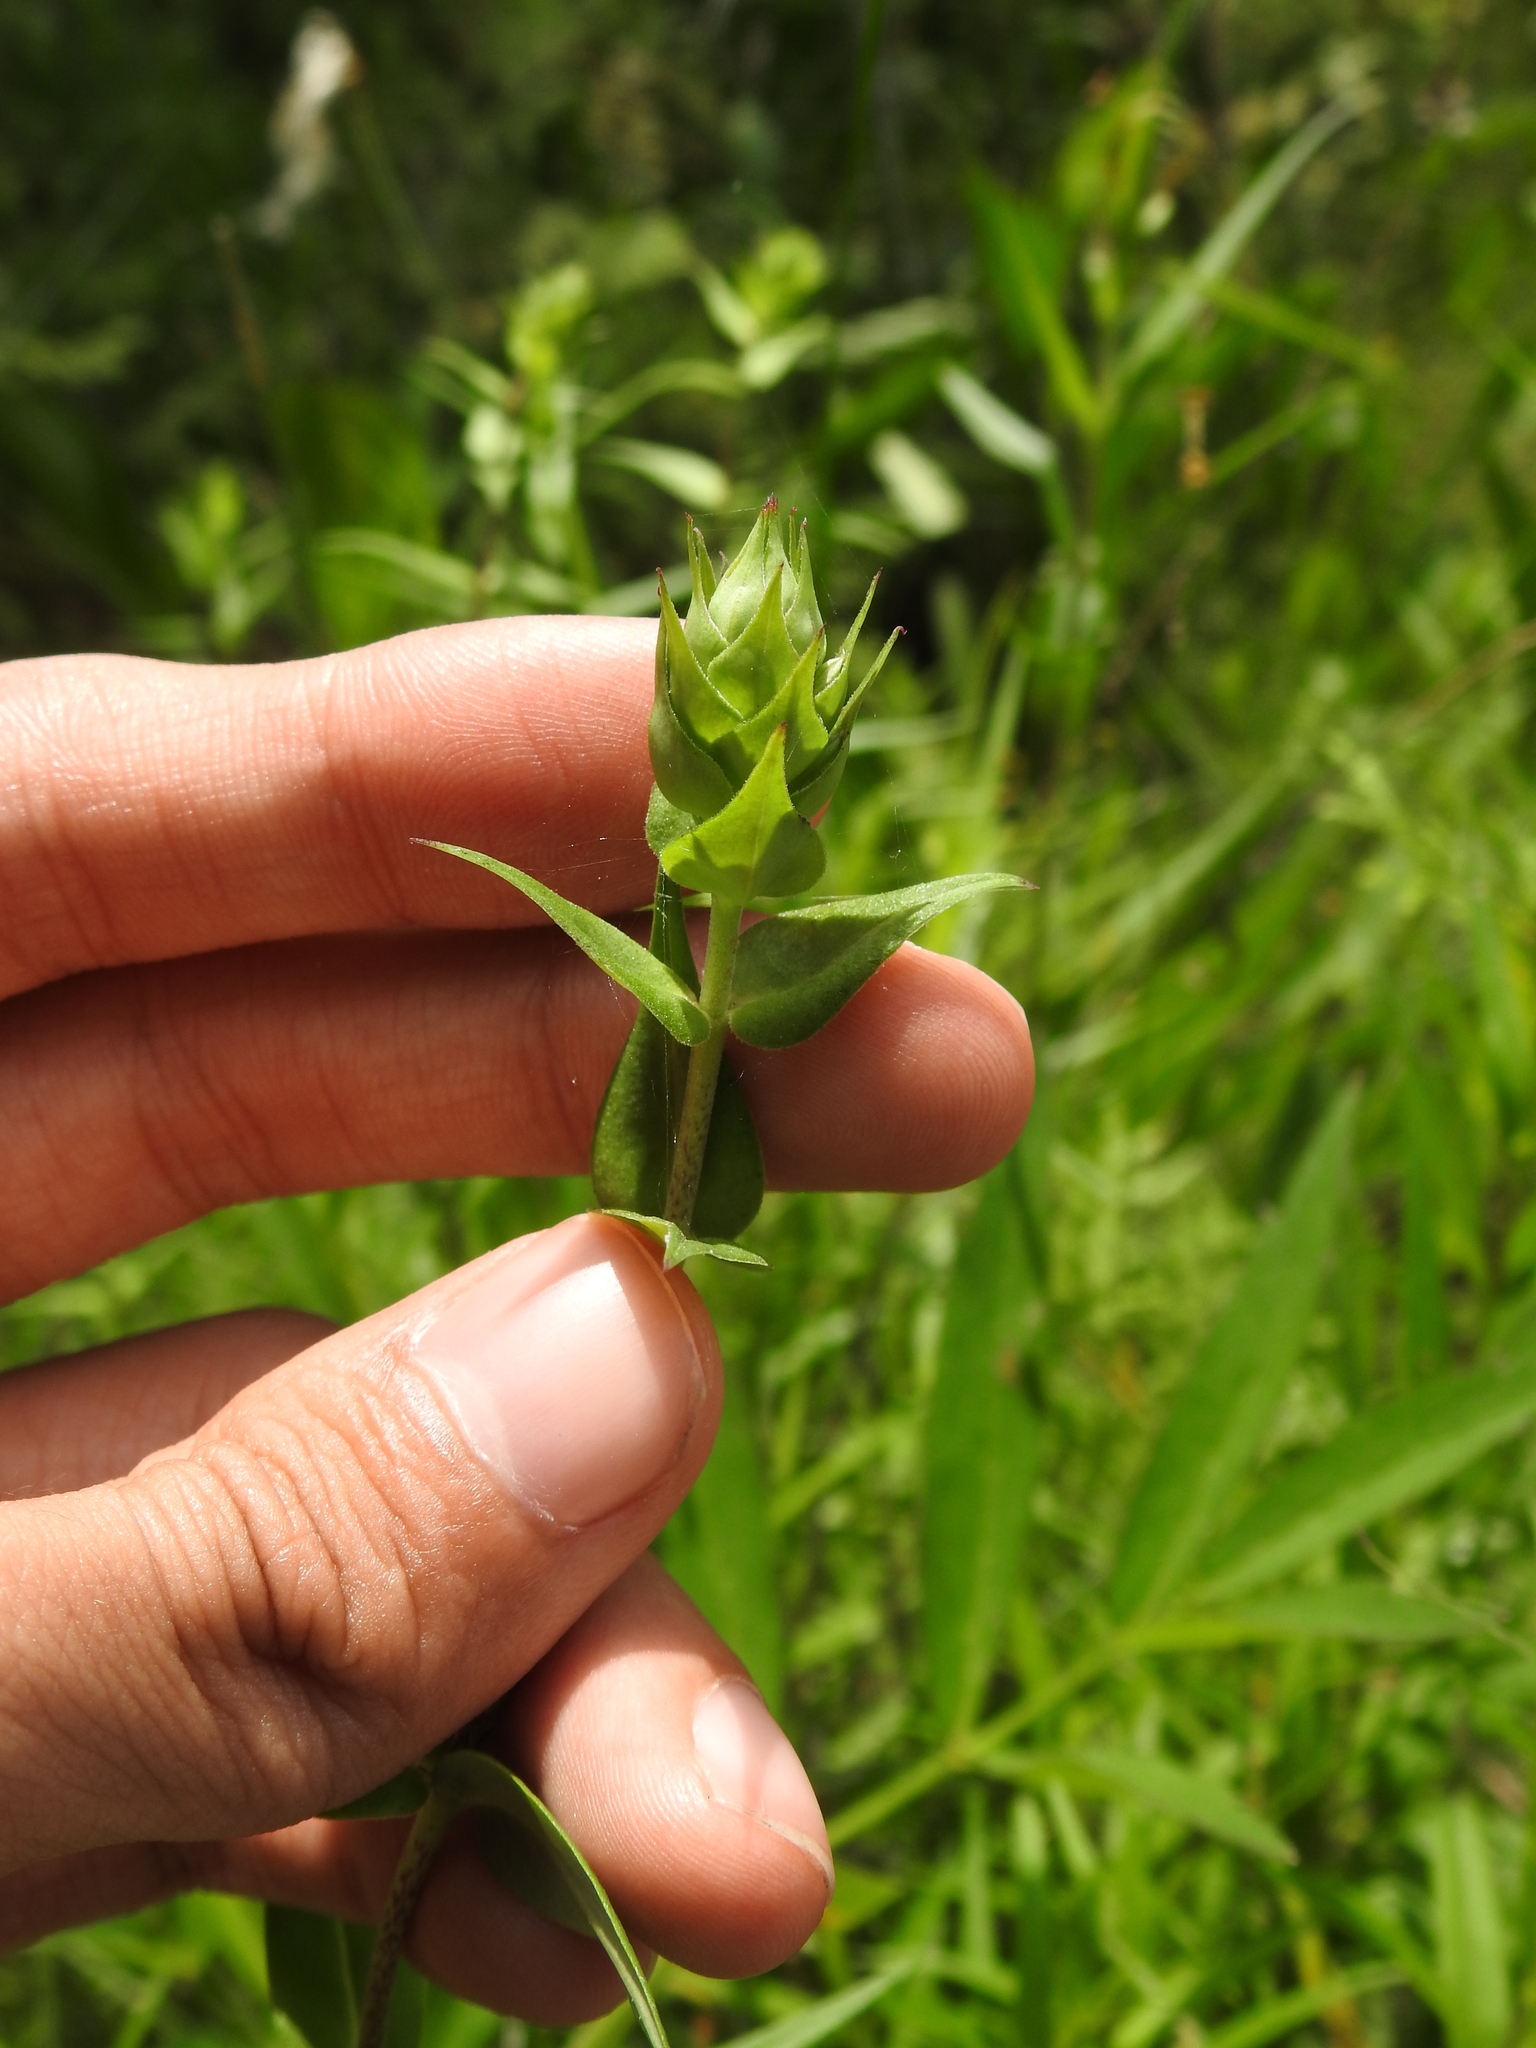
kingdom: Plantae
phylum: Tracheophyta
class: Magnoliopsida
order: Ericales
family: Polemoniaceae
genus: Phlox
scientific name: Phlox maculata
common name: Meadow phlox
